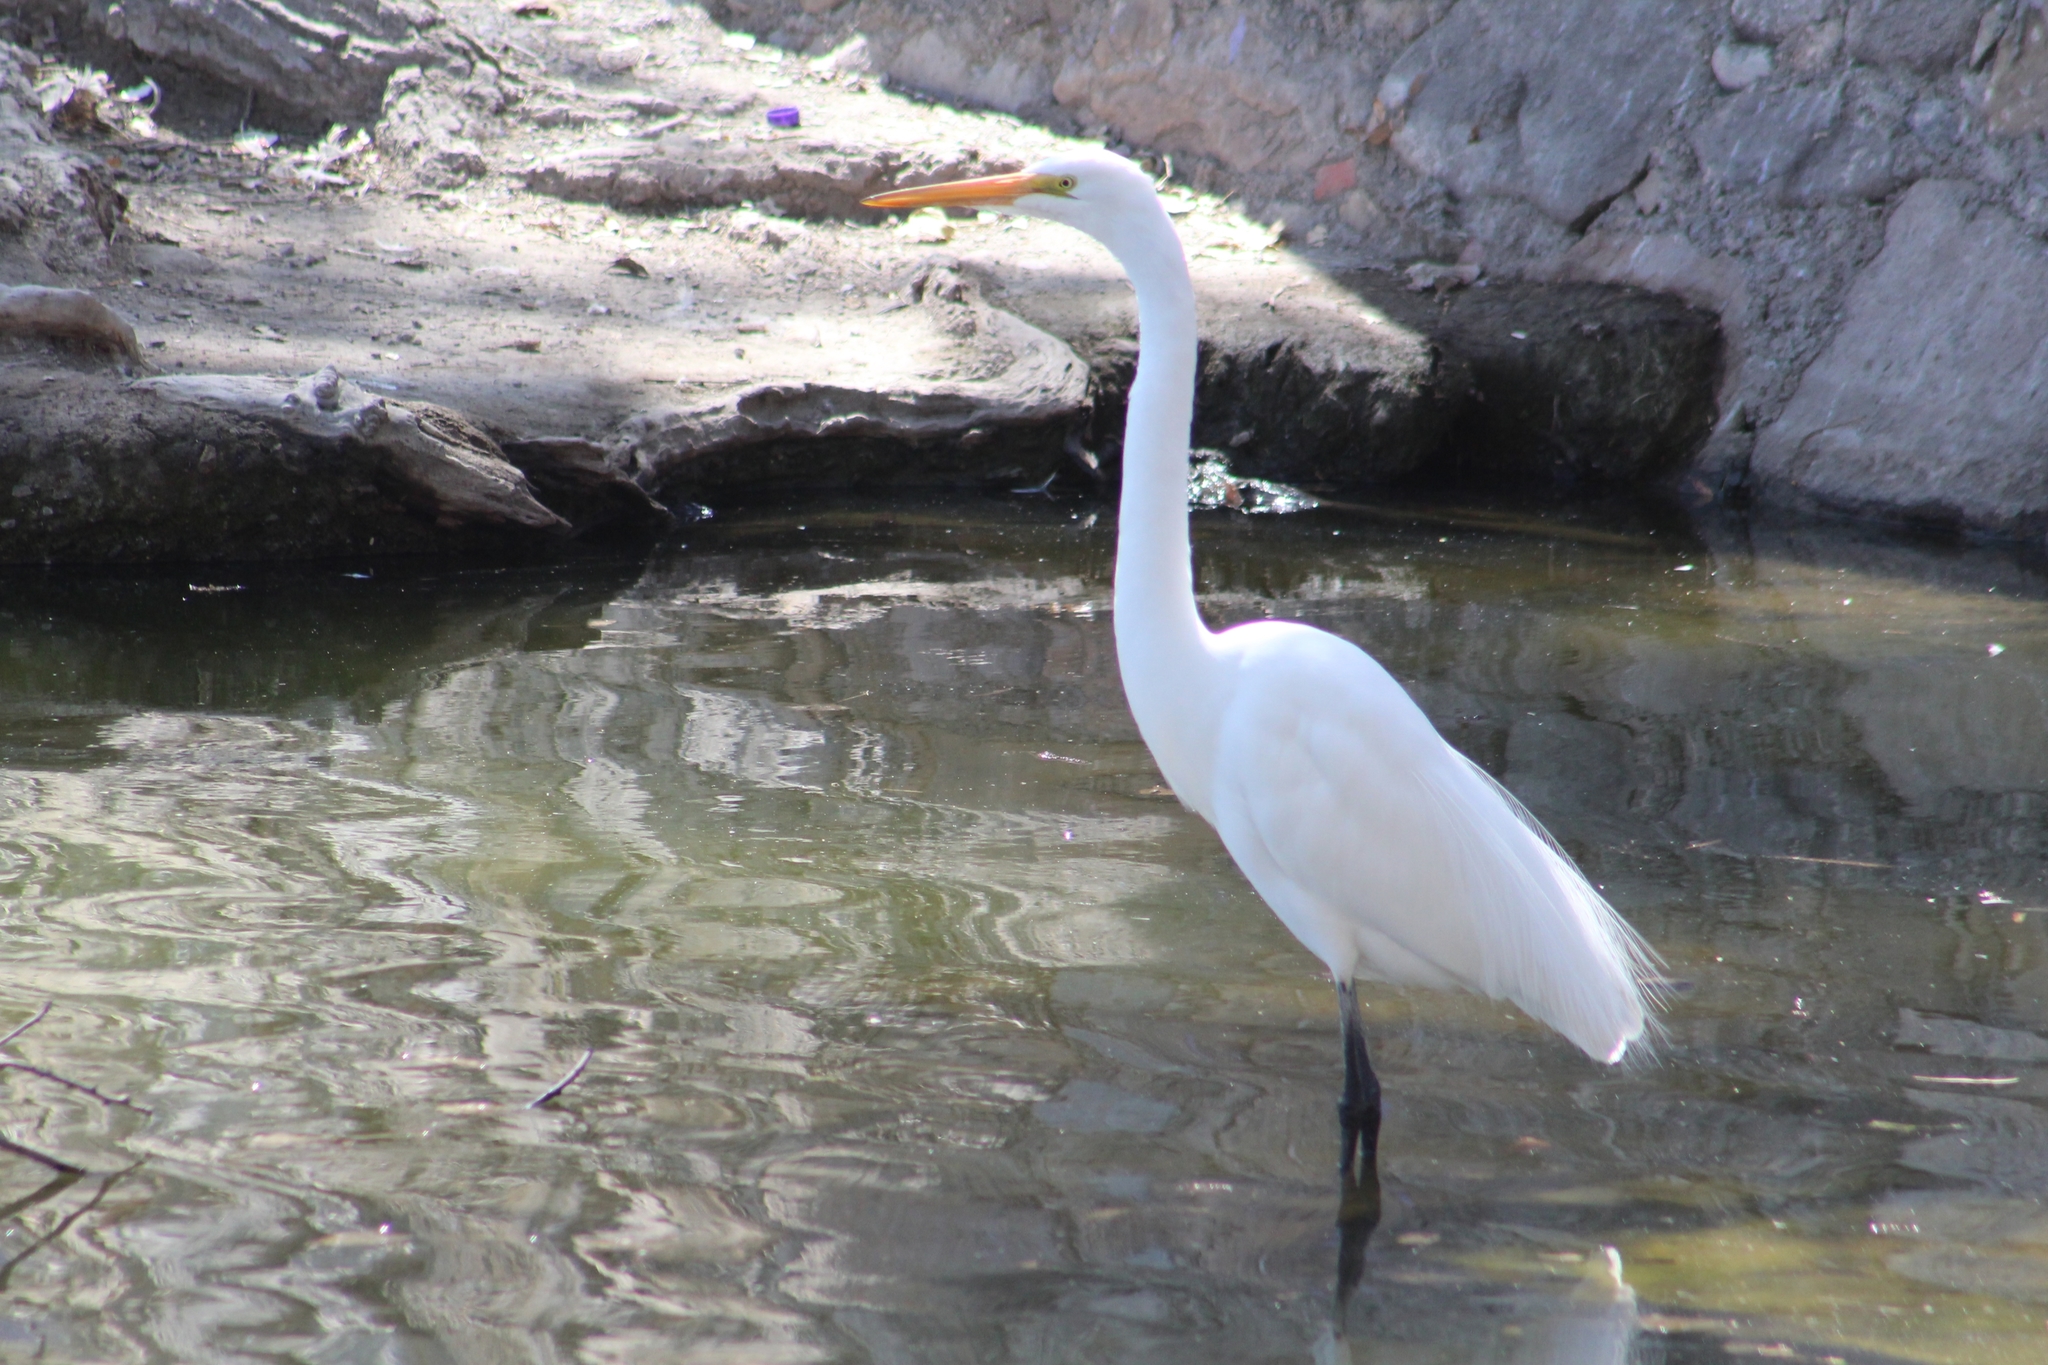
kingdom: Animalia
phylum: Chordata
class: Aves
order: Pelecaniformes
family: Ardeidae
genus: Ardea
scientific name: Ardea alba
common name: Great egret
